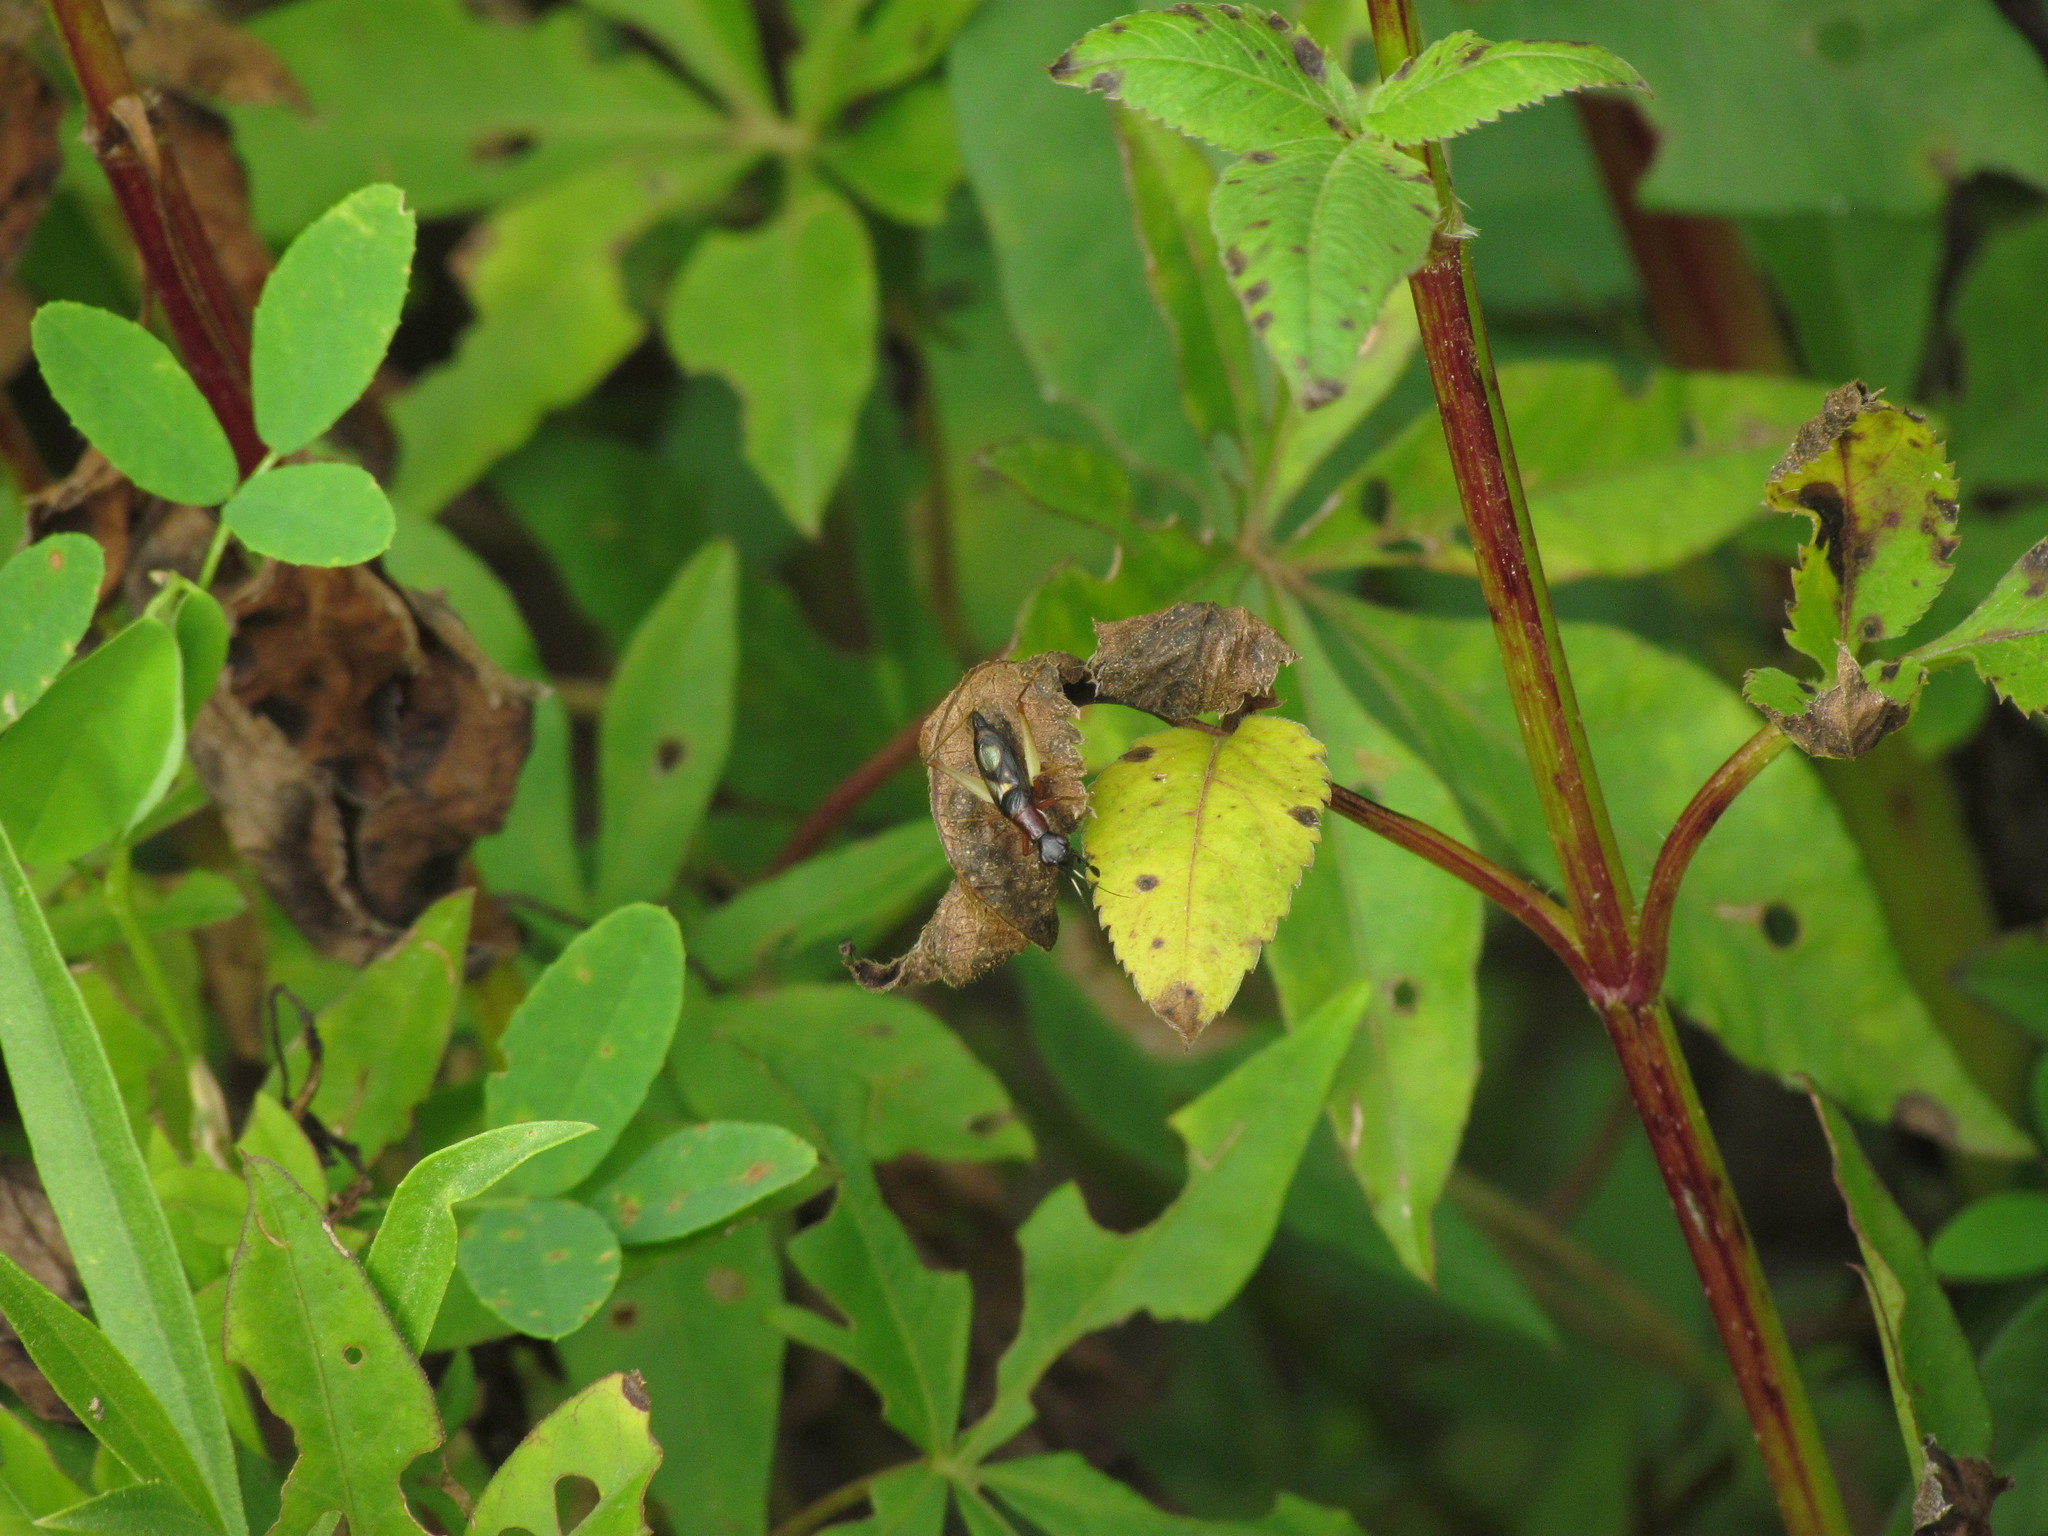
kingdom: Animalia
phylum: Arthropoda
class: Insecta
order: Orthoptera
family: Trigonidiidae
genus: Cranistus
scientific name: Cranistus colliurides
